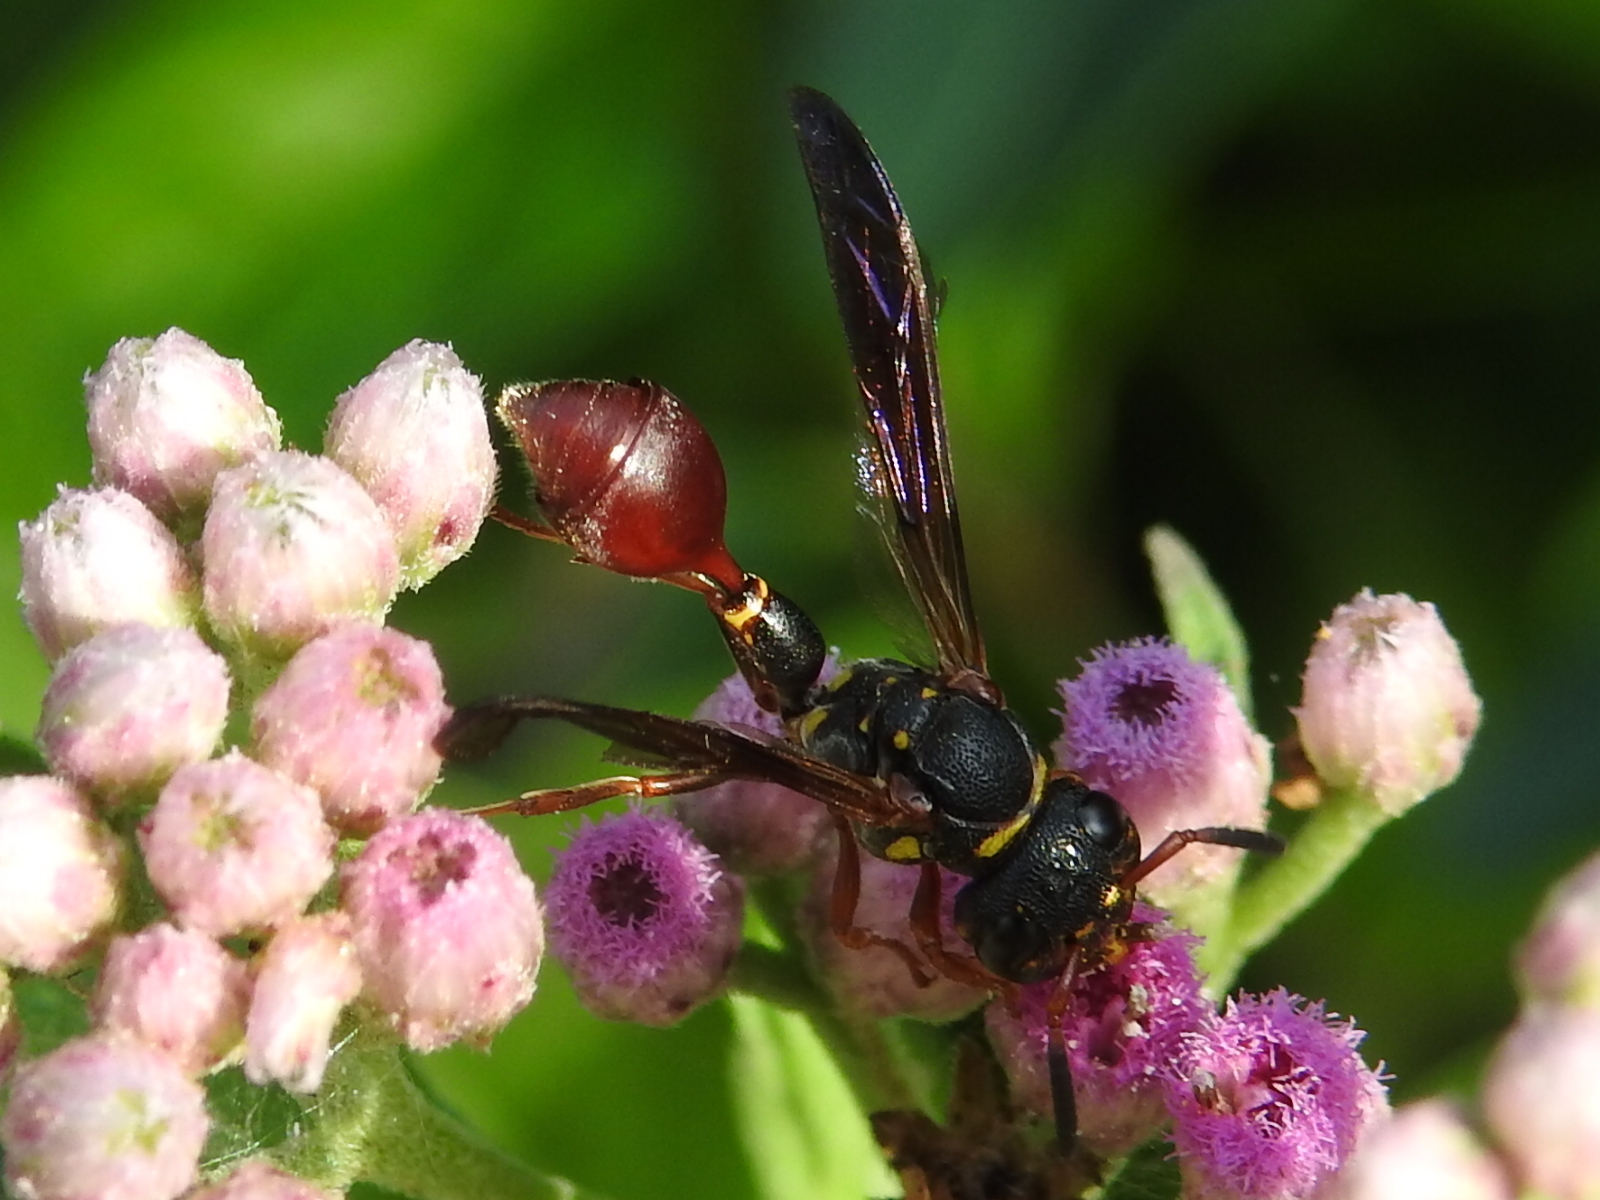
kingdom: Animalia
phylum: Arthropoda
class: Insecta
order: Hymenoptera
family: Eumenidae
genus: Zethus
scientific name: Zethus slossonae
